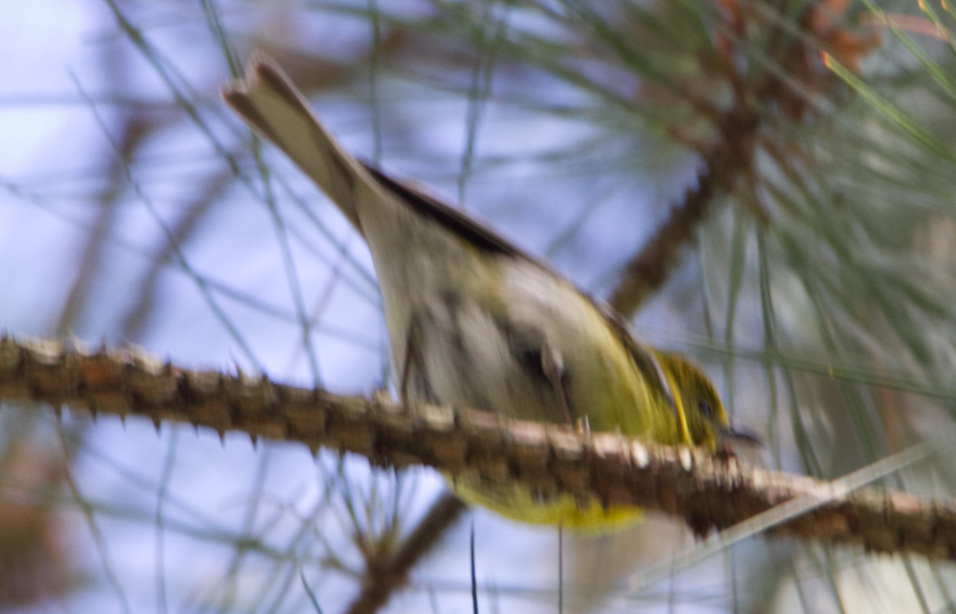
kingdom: Animalia
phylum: Chordata
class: Aves
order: Passeriformes
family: Parulidae
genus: Setophaga
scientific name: Setophaga pinus
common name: Pine warbler
